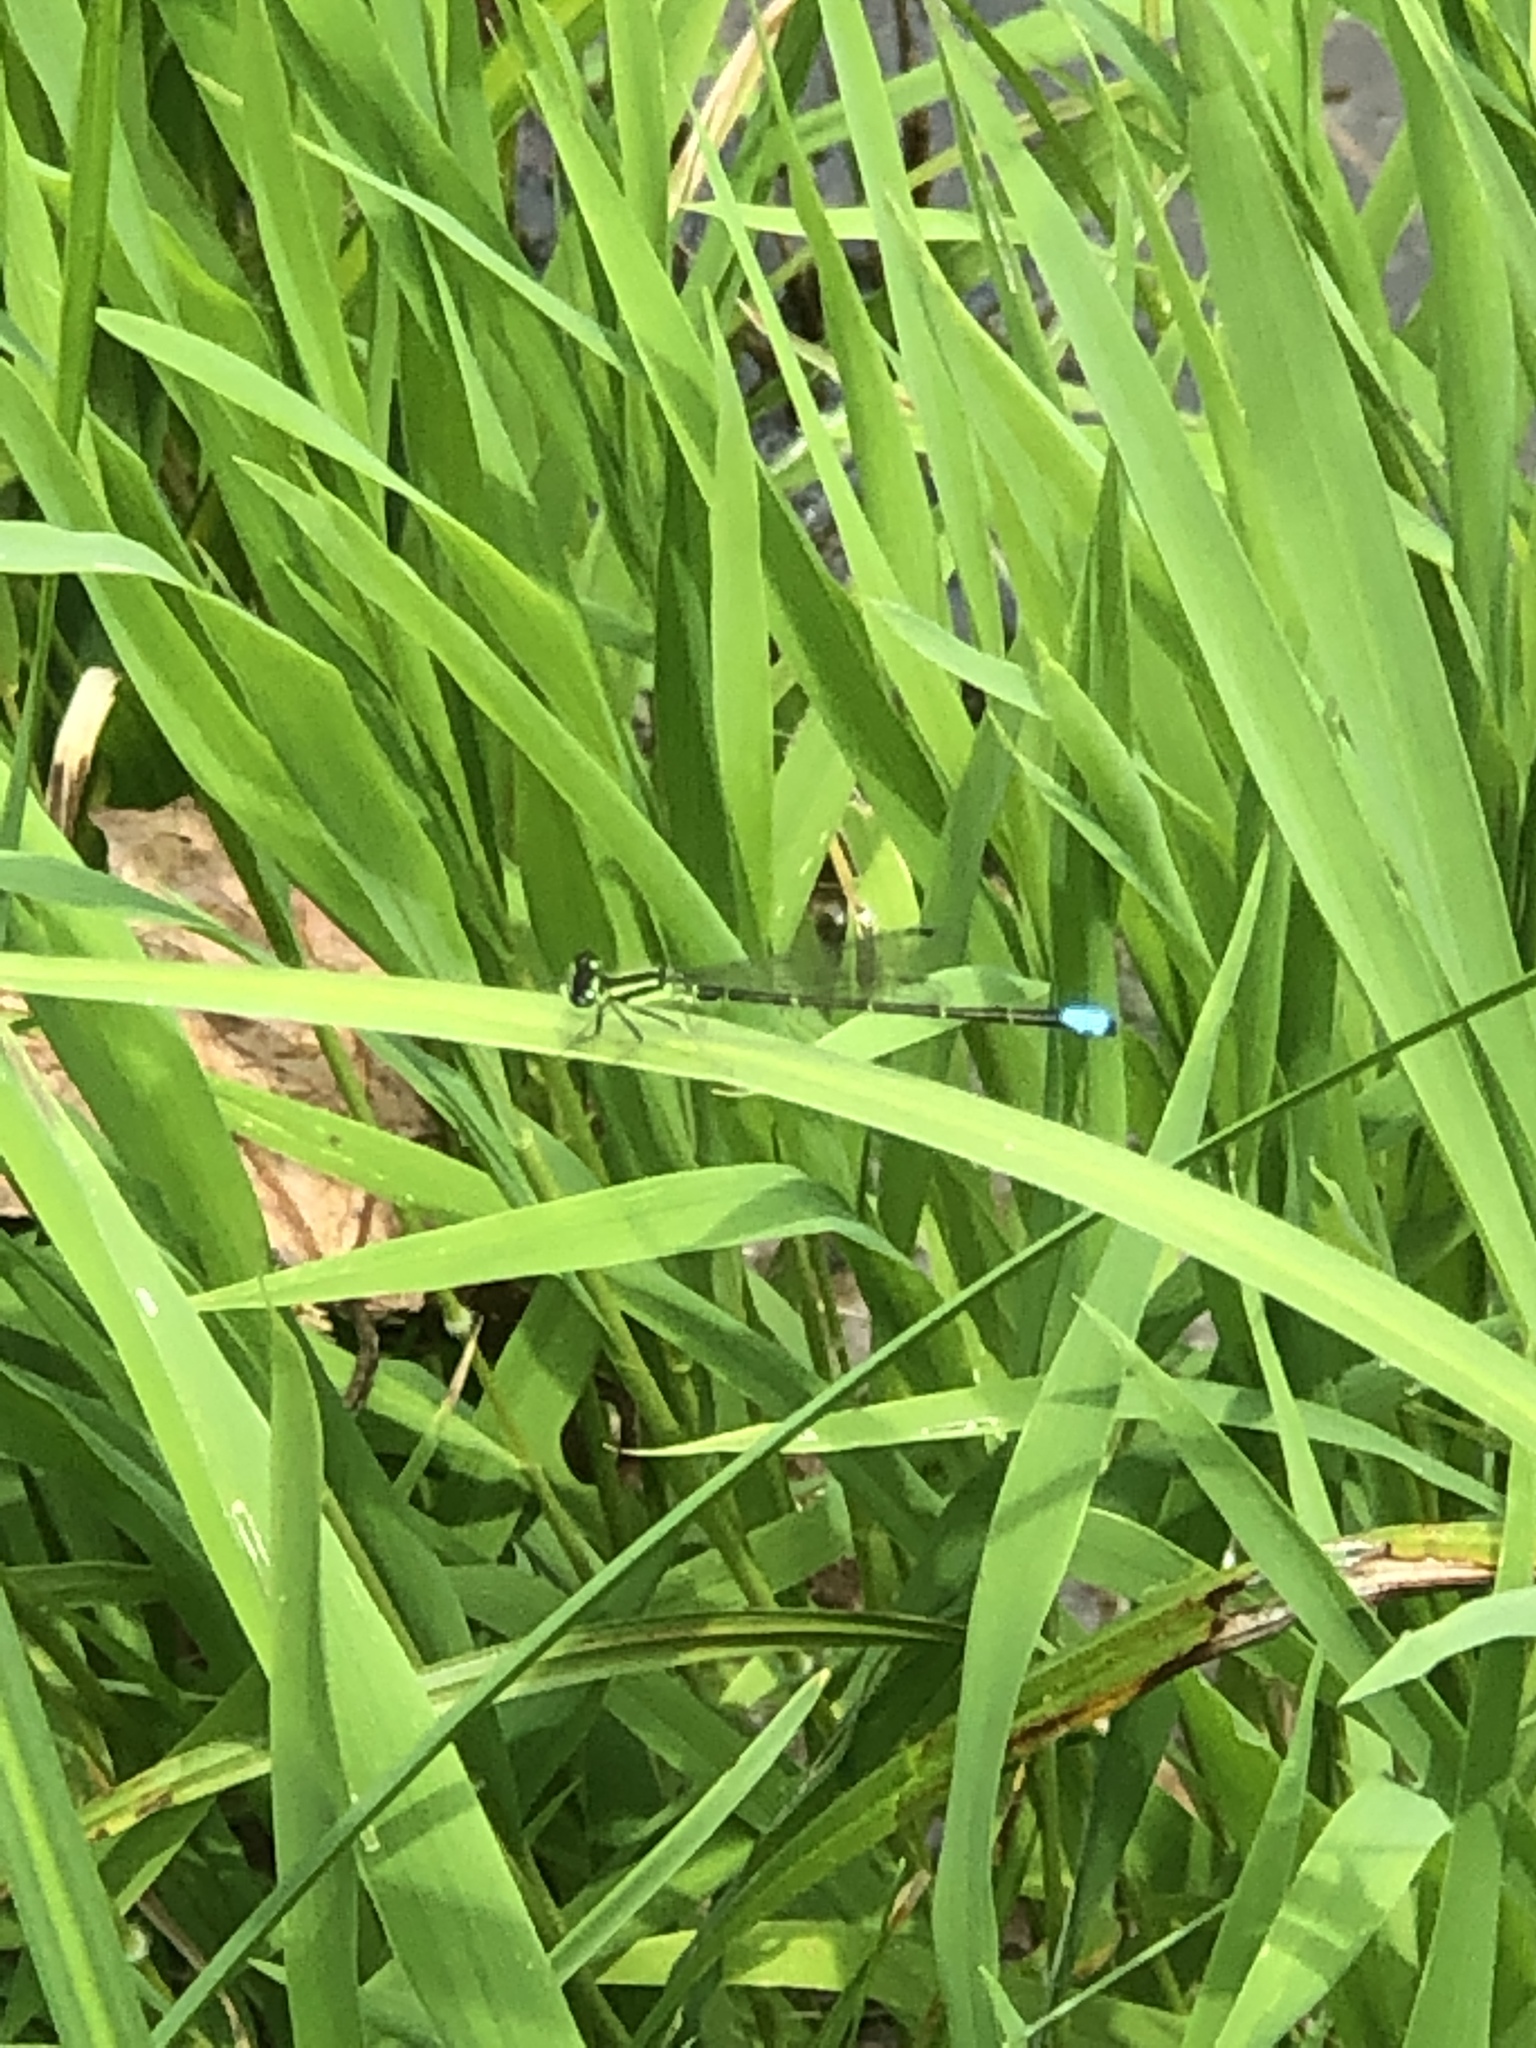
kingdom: Animalia
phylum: Arthropoda
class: Insecta
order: Odonata
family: Coenagrionidae
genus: Ischnura
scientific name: Ischnura verticalis
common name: Eastern forktail
